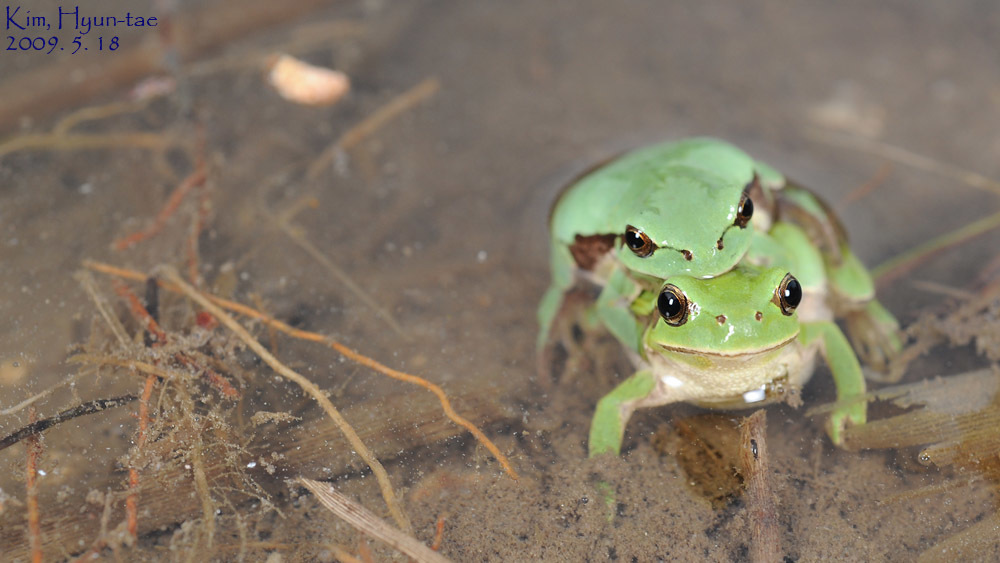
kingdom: Animalia
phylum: Chordata
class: Amphibia
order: Anura
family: Hylidae
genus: Dryophytes
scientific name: Dryophytes immaculatus
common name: North china treefrog
